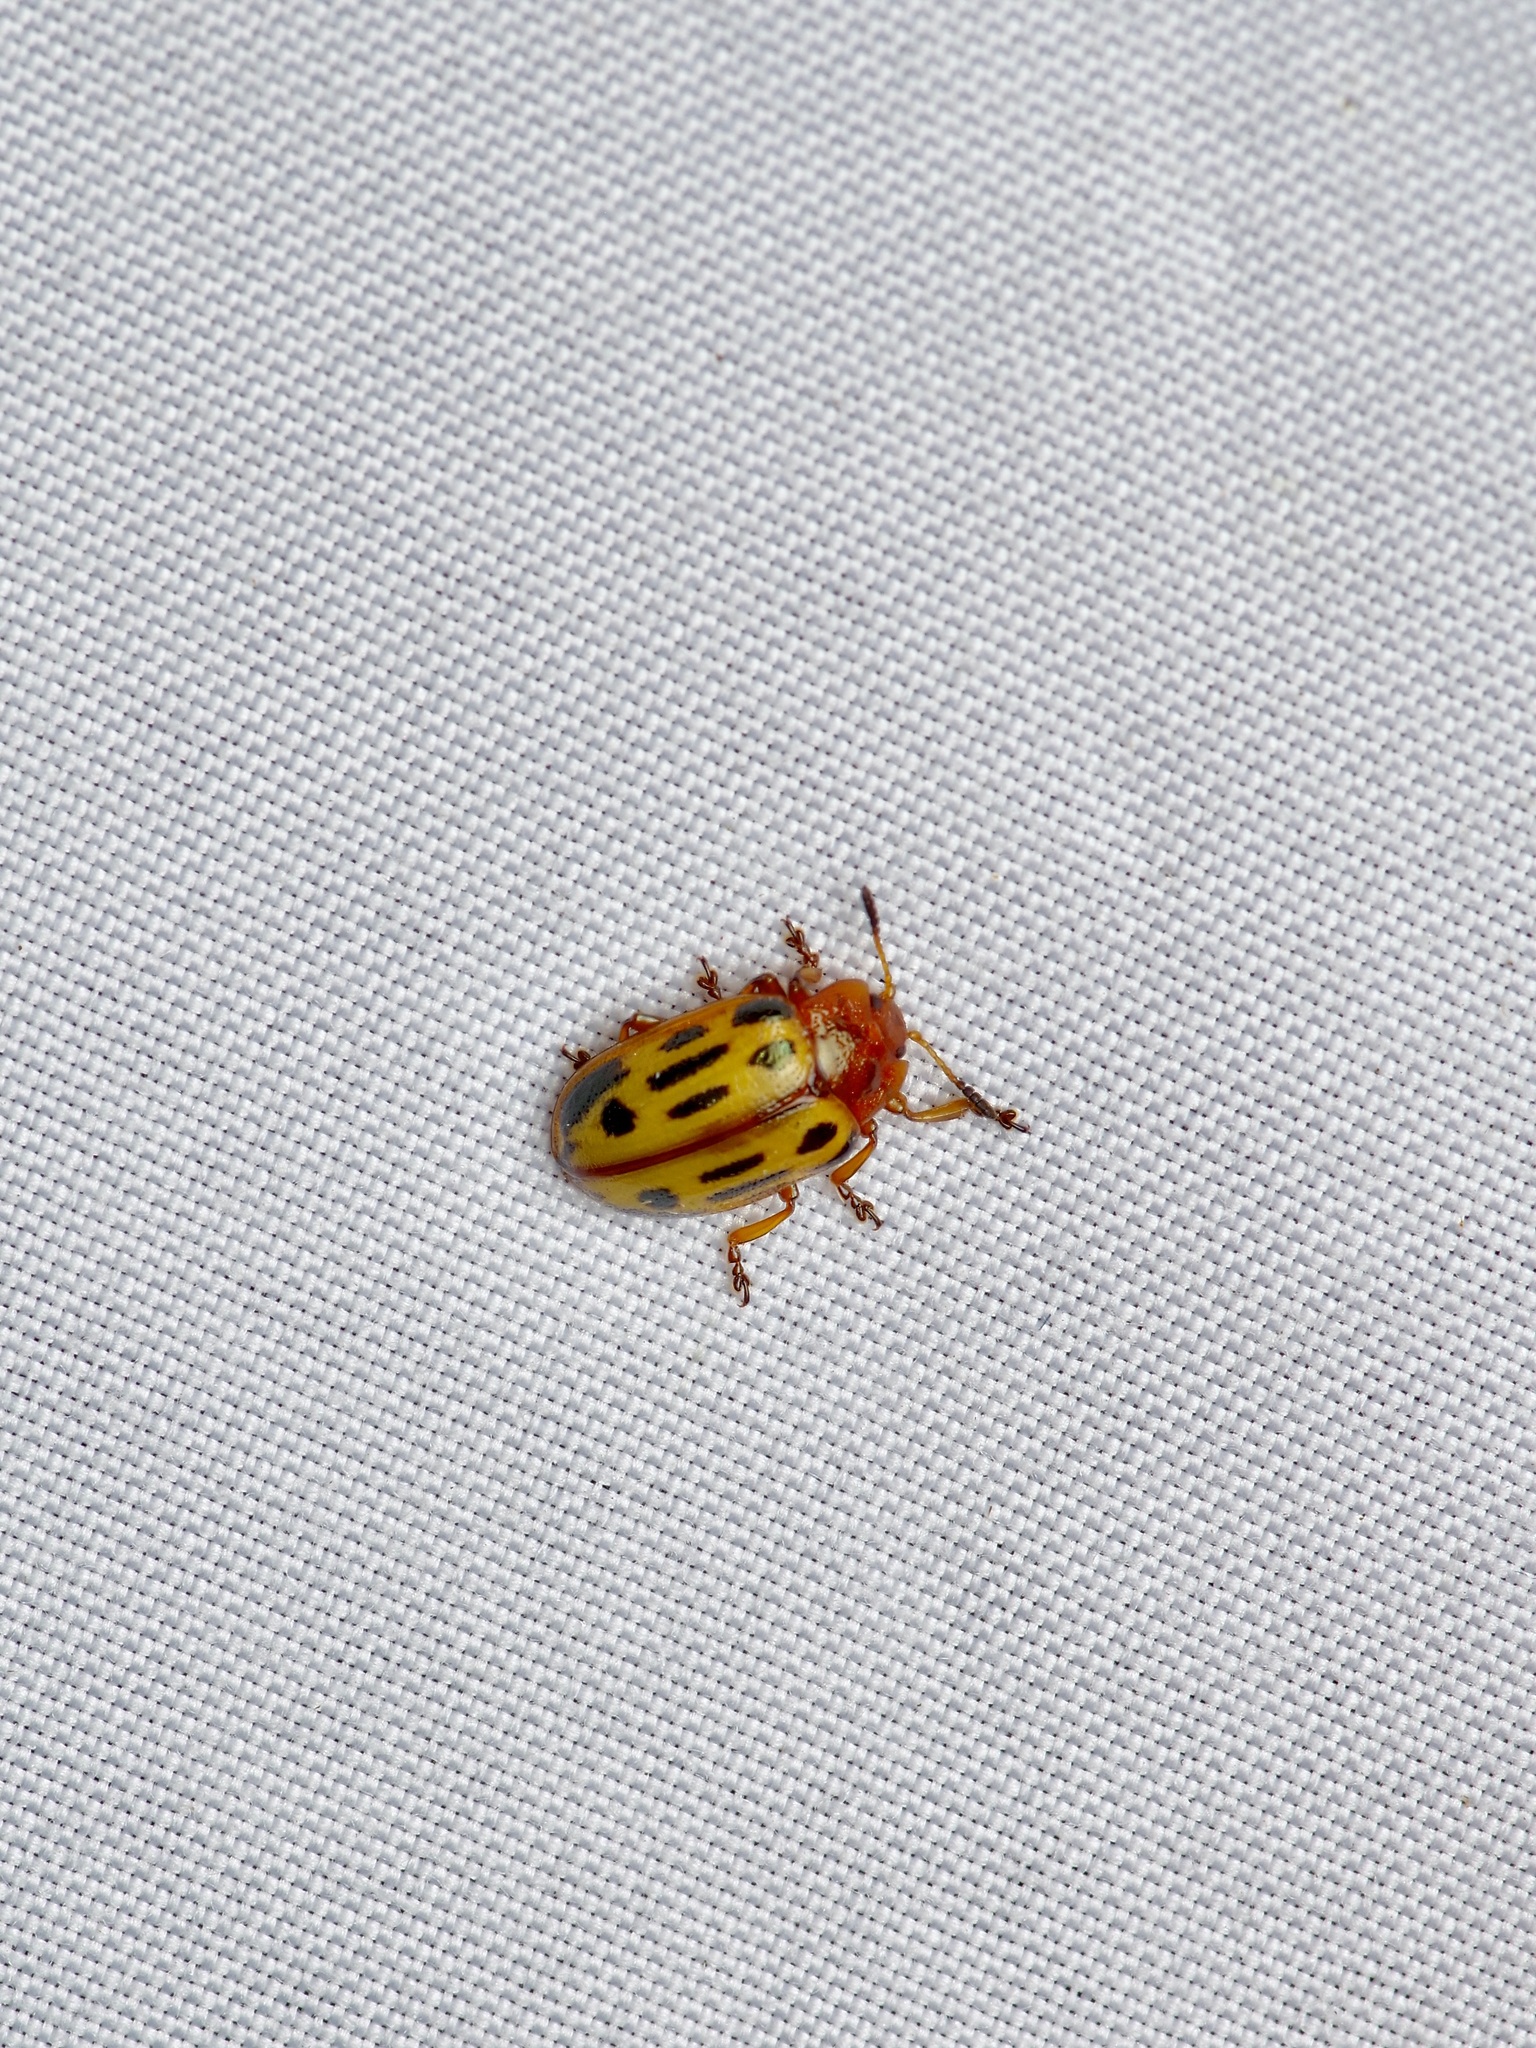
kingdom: Animalia
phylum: Arthropoda
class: Insecta
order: Coleoptera
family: Chrysomelidae
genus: Chrysomela
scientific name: Chrysomela texana
